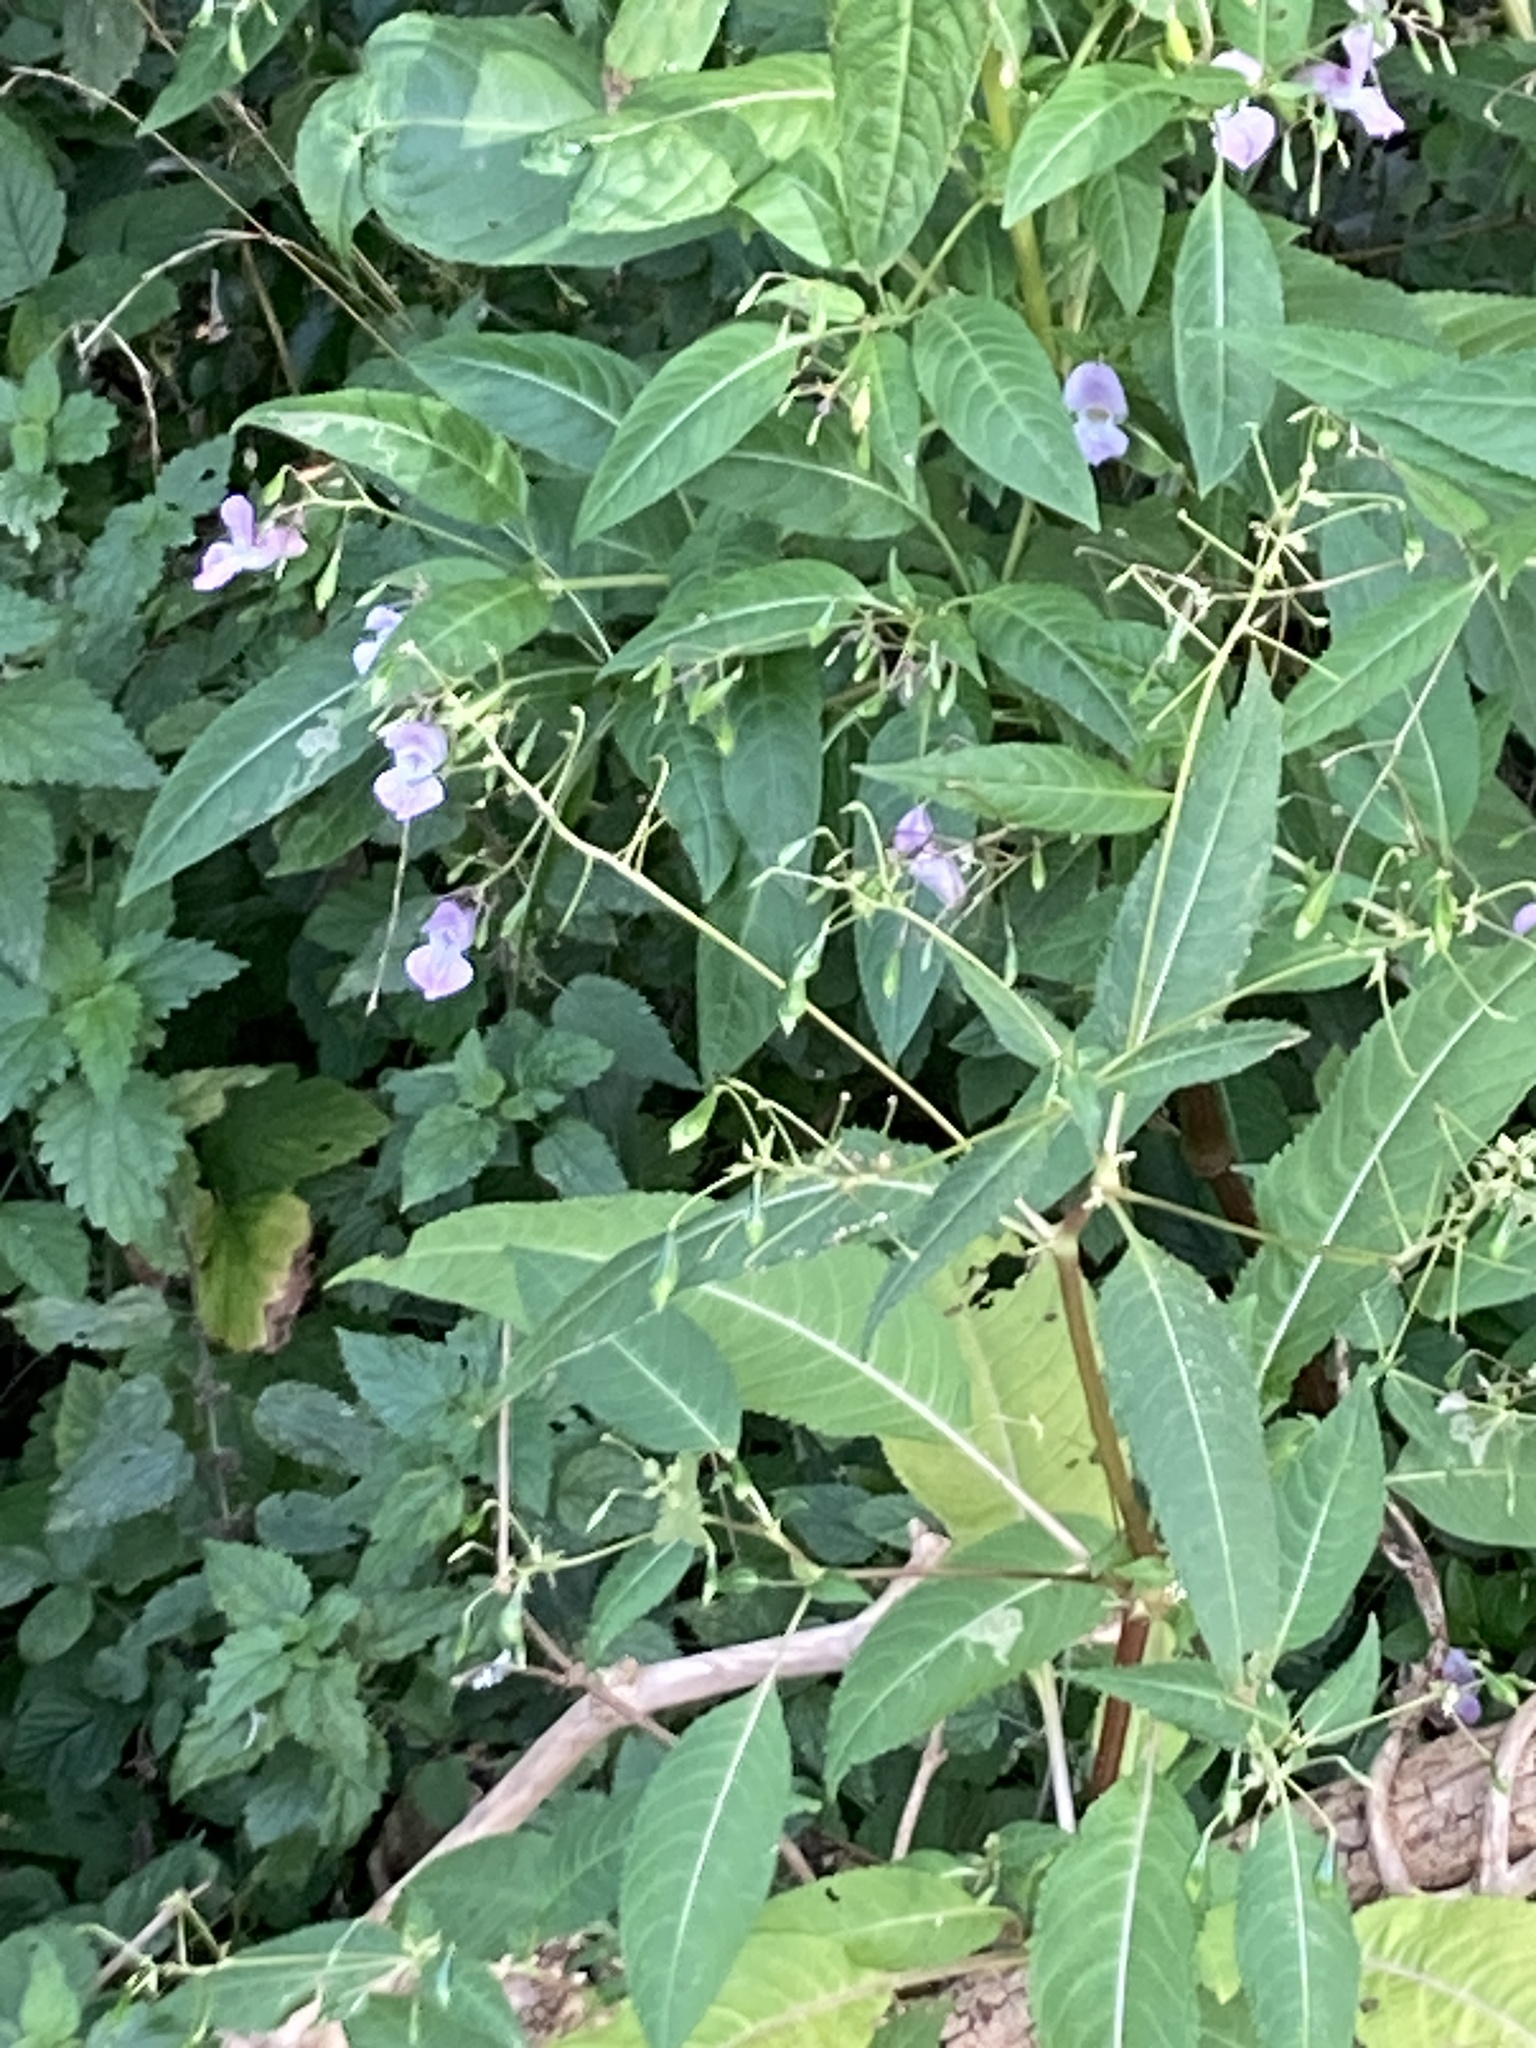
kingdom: Plantae
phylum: Tracheophyta
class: Magnoliopsida
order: Ericales
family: Balsaminaceae
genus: Impatiens
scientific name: Impatiens glandulifera
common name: Himalayan balsam
